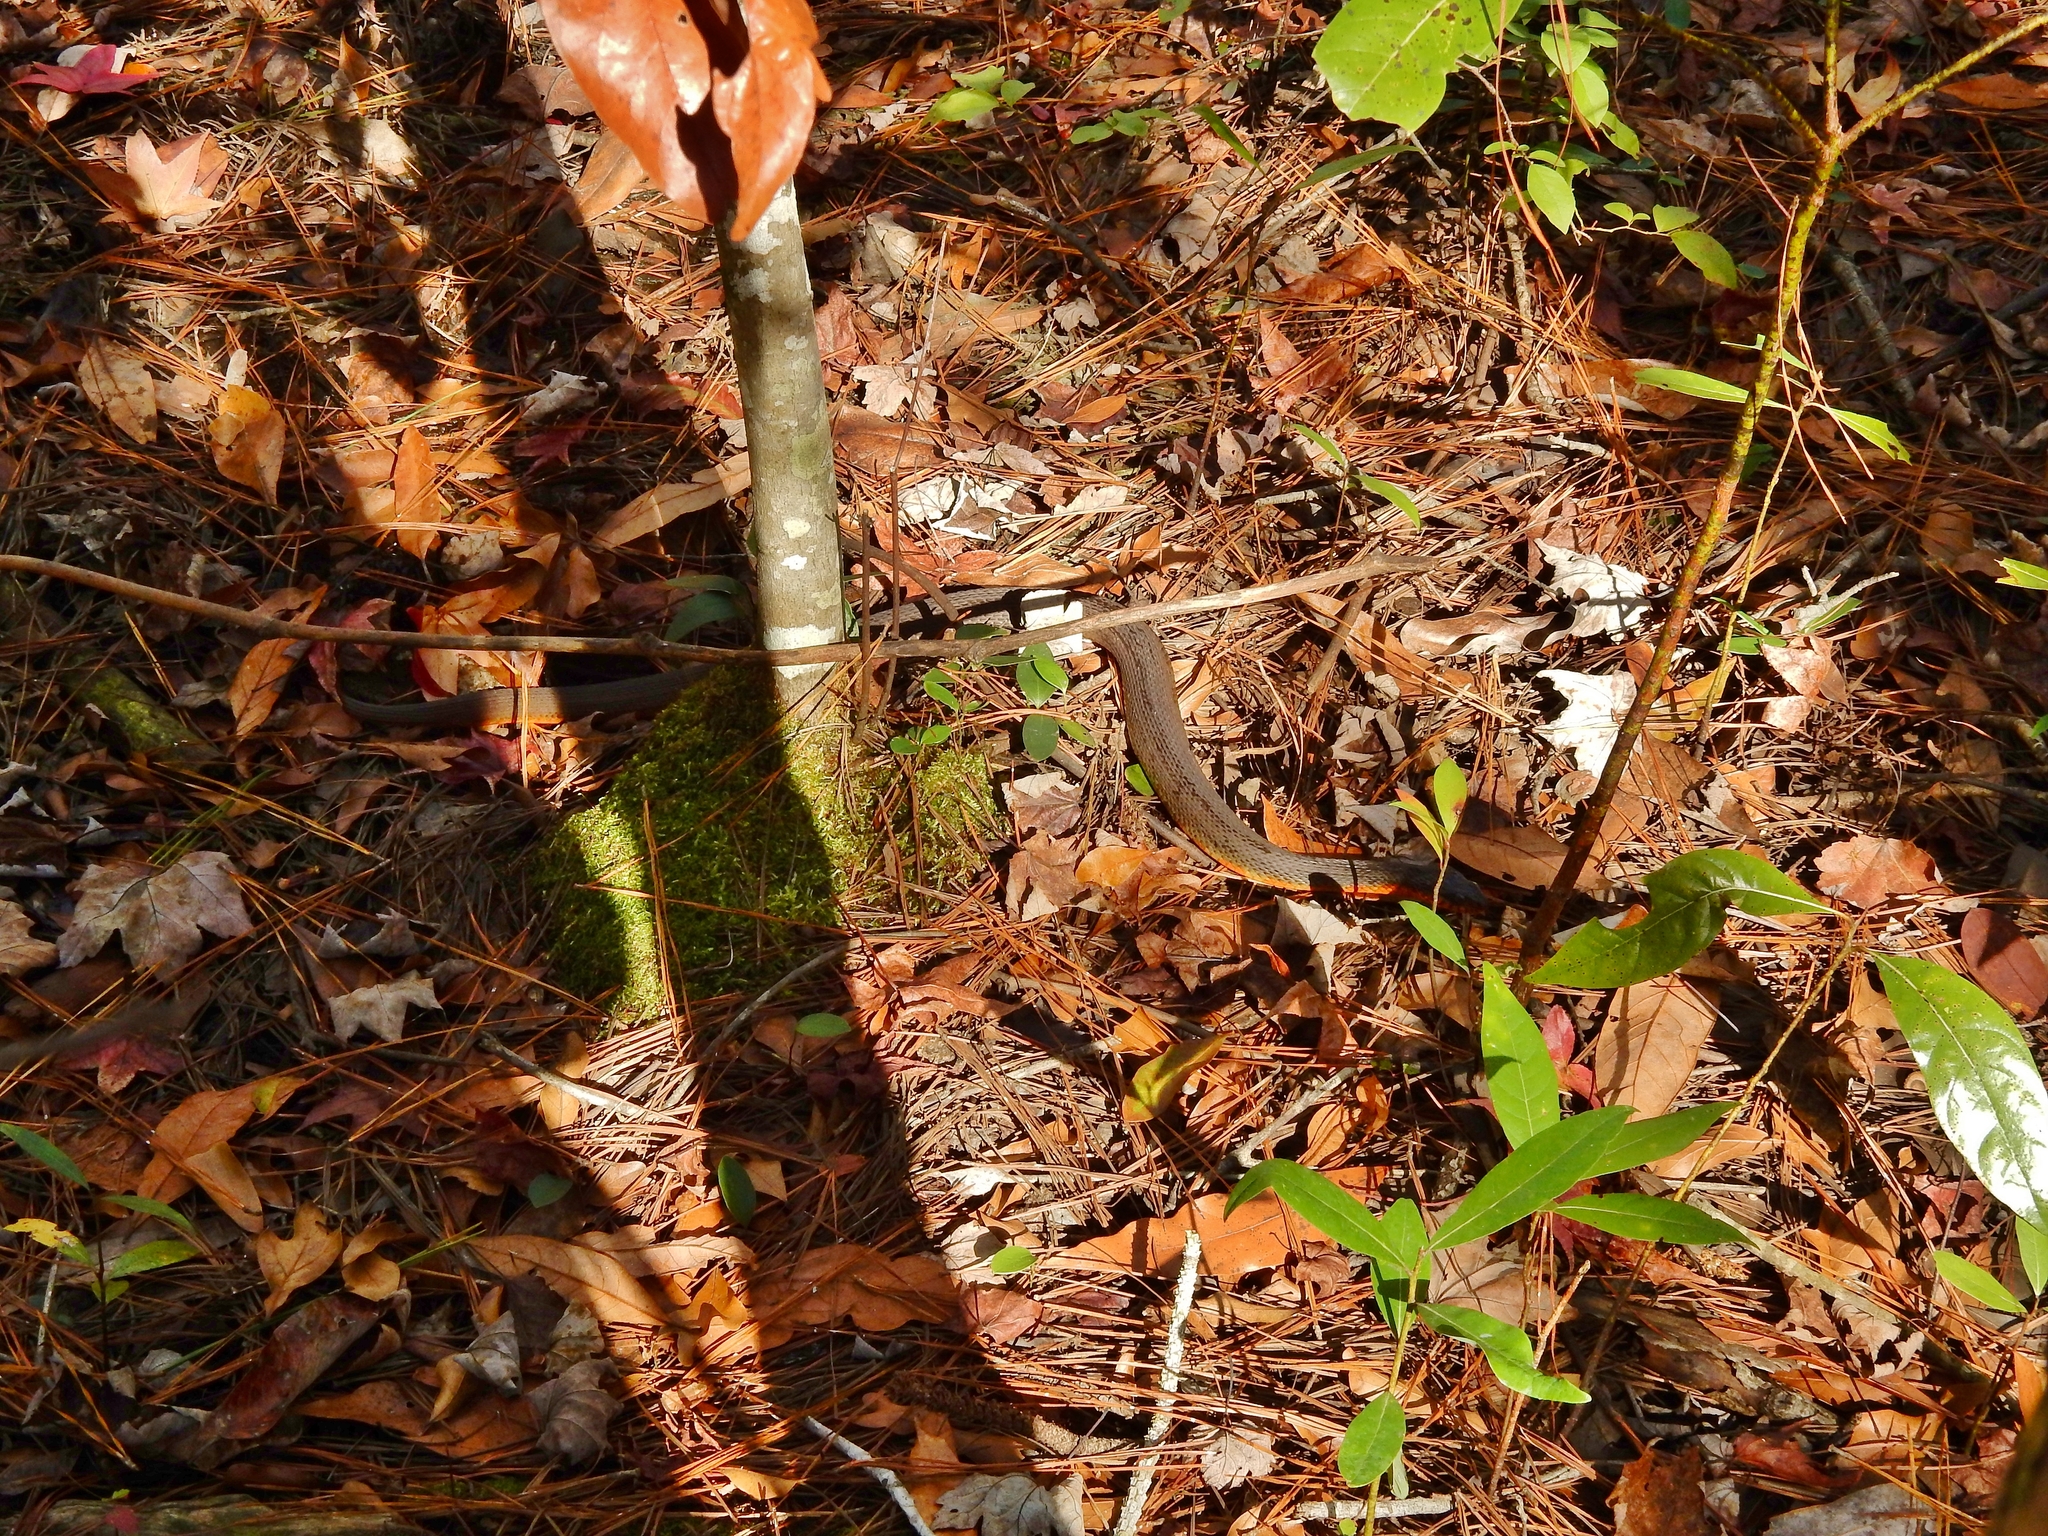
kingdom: Animalia
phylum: Chordata
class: Squamata
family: Colubridae
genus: Nerodia
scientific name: Nerodia erythrogaster
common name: Plainbelly water snake
